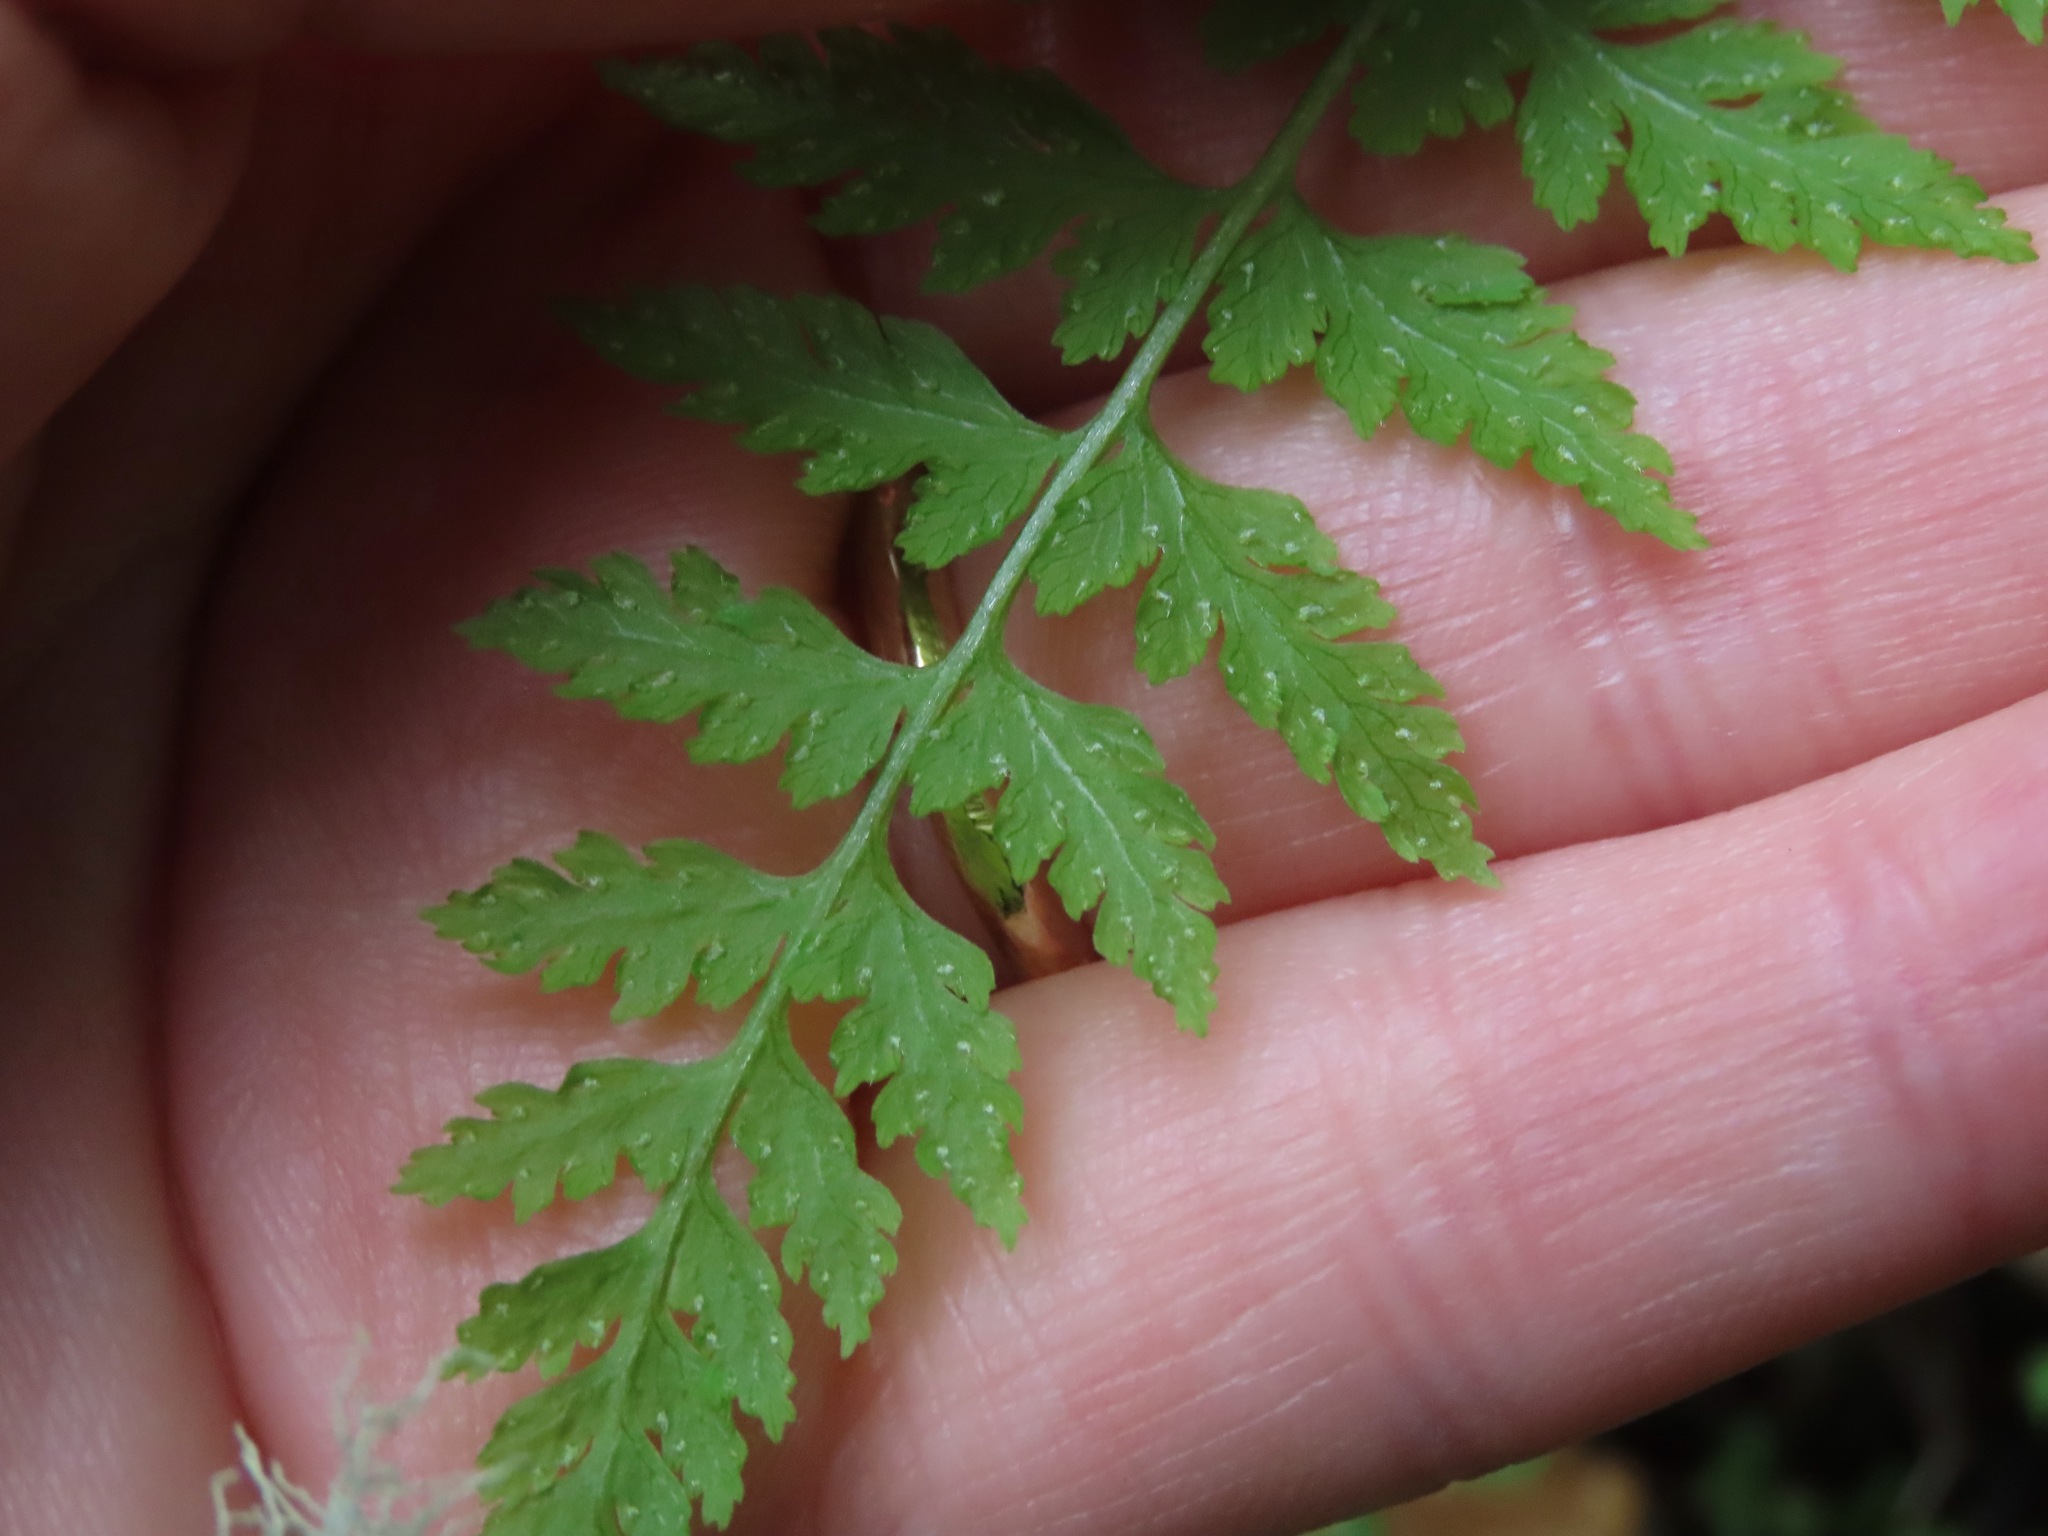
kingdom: Plantae
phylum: Tracheophyta
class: Polypodiopsida
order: Polypodiales
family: Cystopteridaceae
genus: Cystopteris
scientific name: Cystopteris fragilis
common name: Brittle bladder fern
